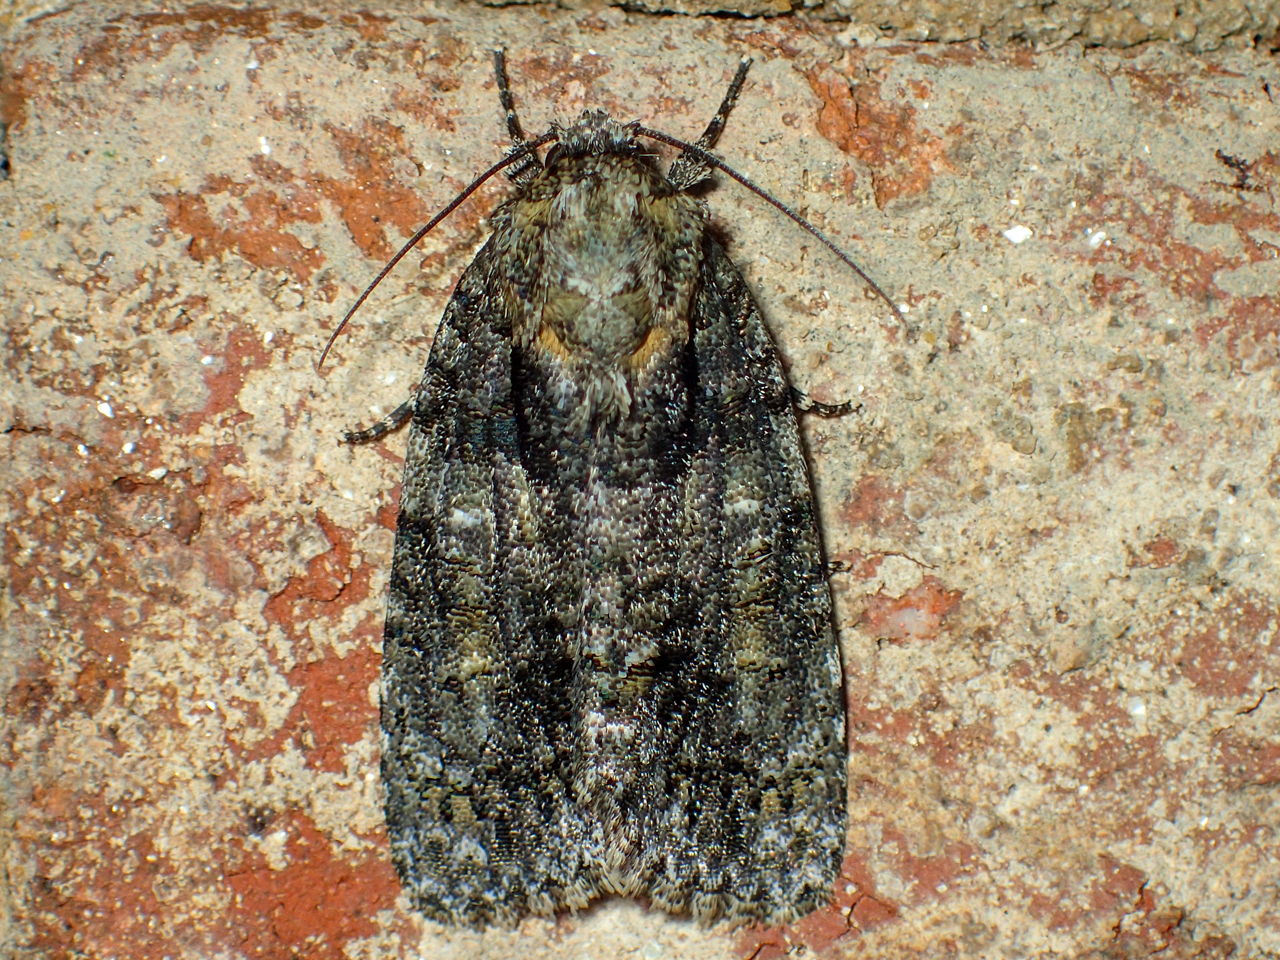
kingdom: Animalia
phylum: Arthropoda
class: Insecta
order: Lepidoptera
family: Noctuidae
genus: Acronicta
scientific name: Acronicta increta
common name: Eclipsed oak dagger
